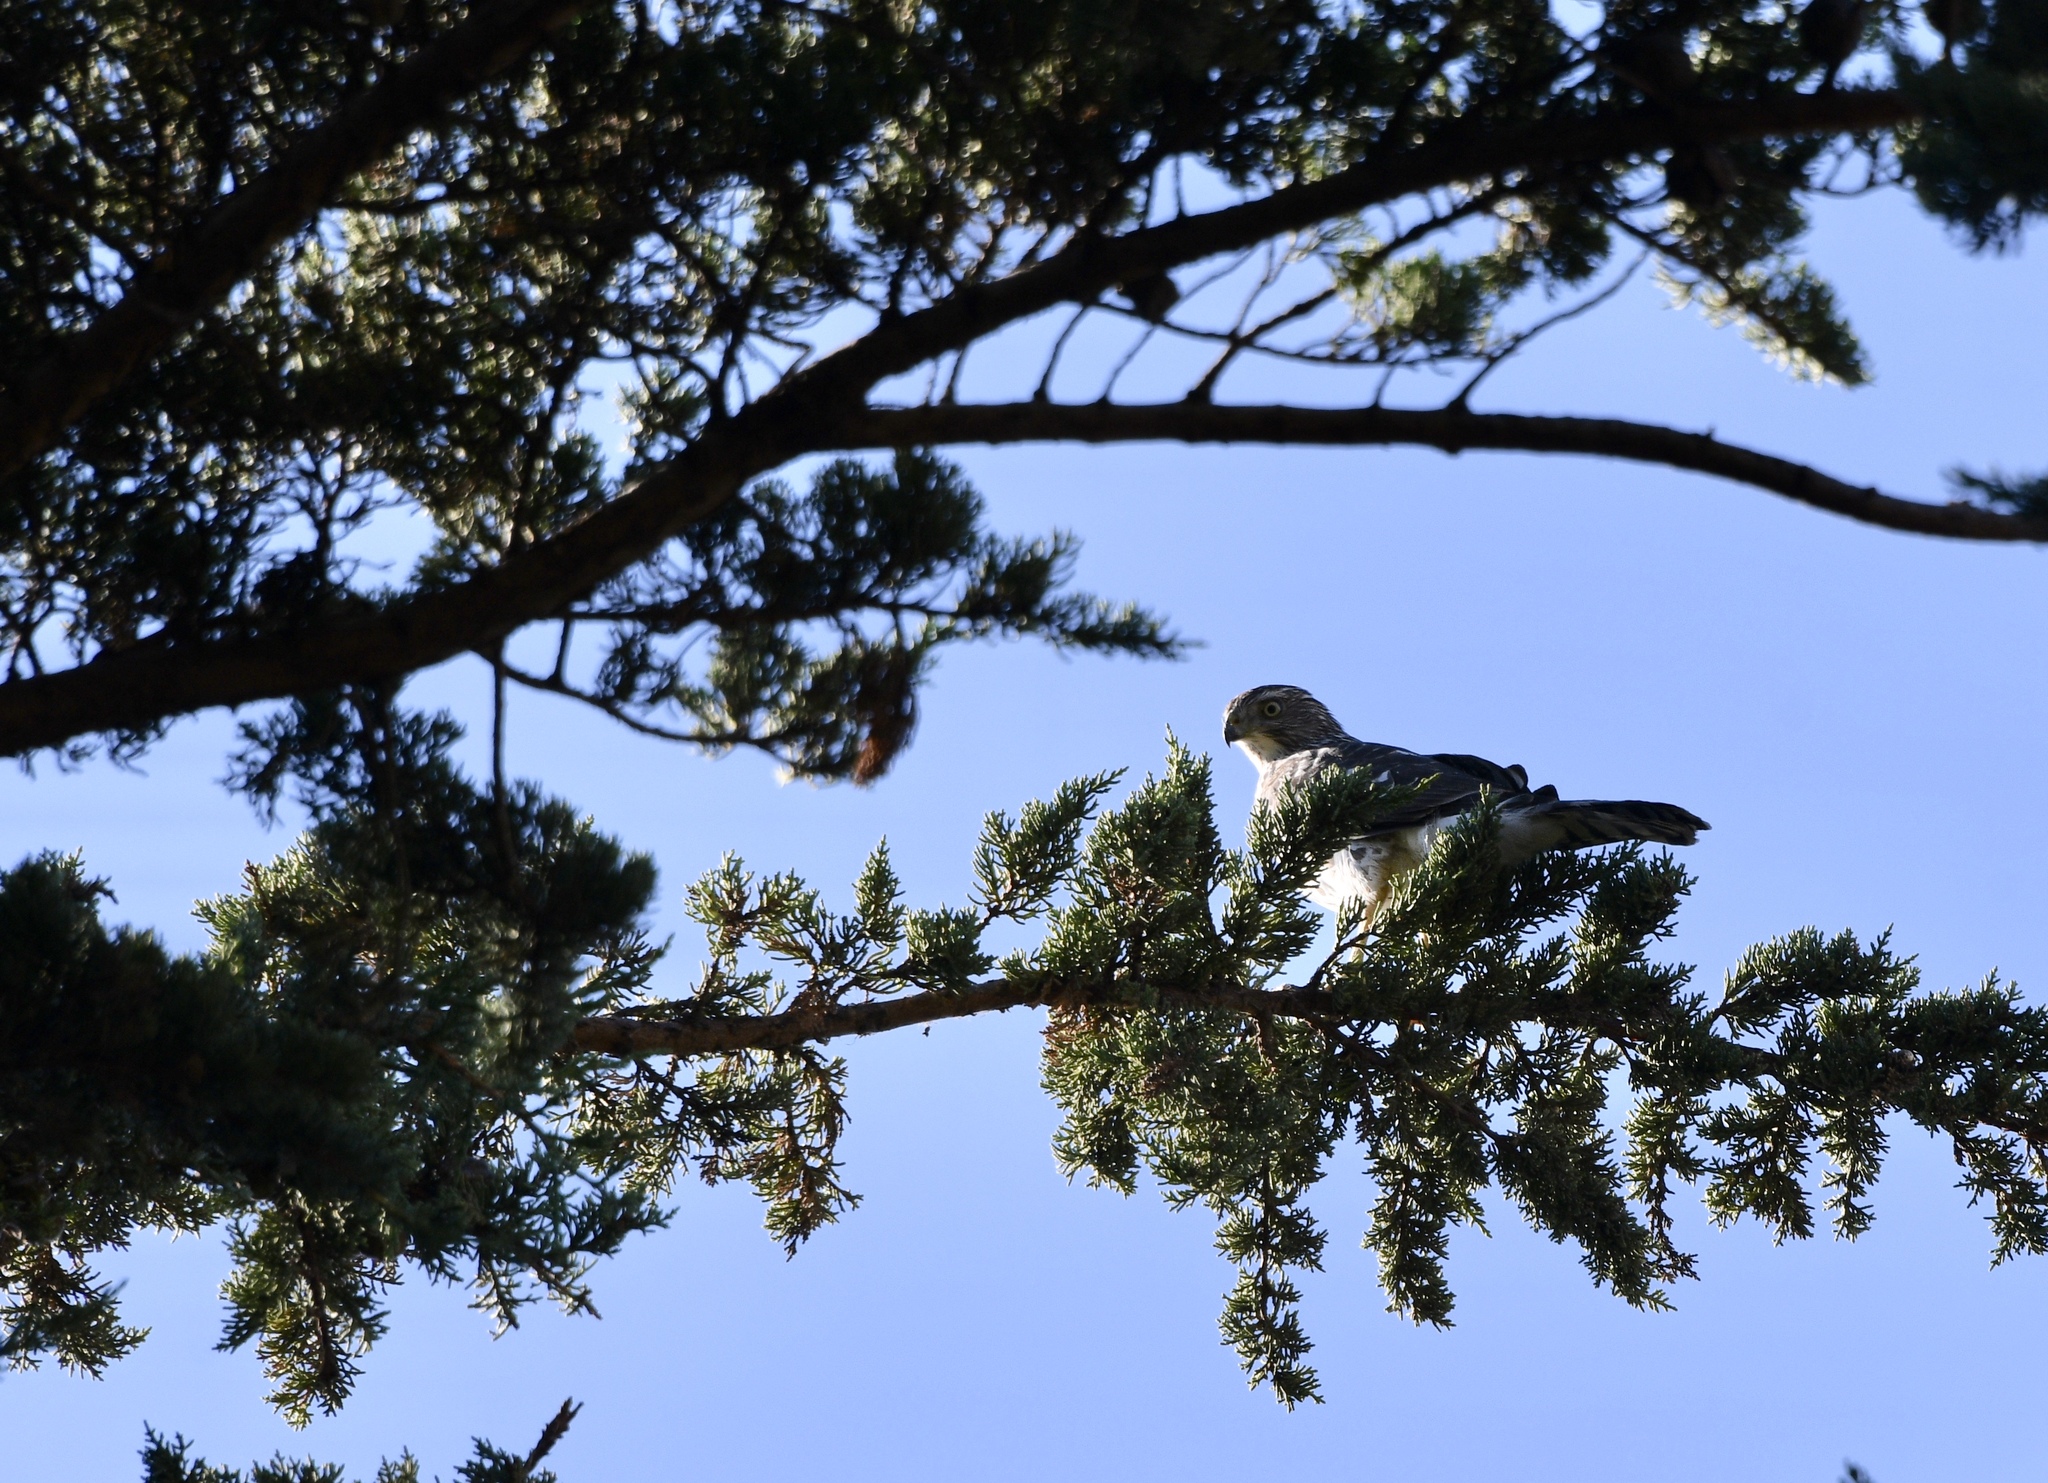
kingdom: Animalia
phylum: Chordata
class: Aves
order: Accipitriformes
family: Accipitridae
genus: Accipiter
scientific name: Accipiter cooperii
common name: Cooper's hawk
